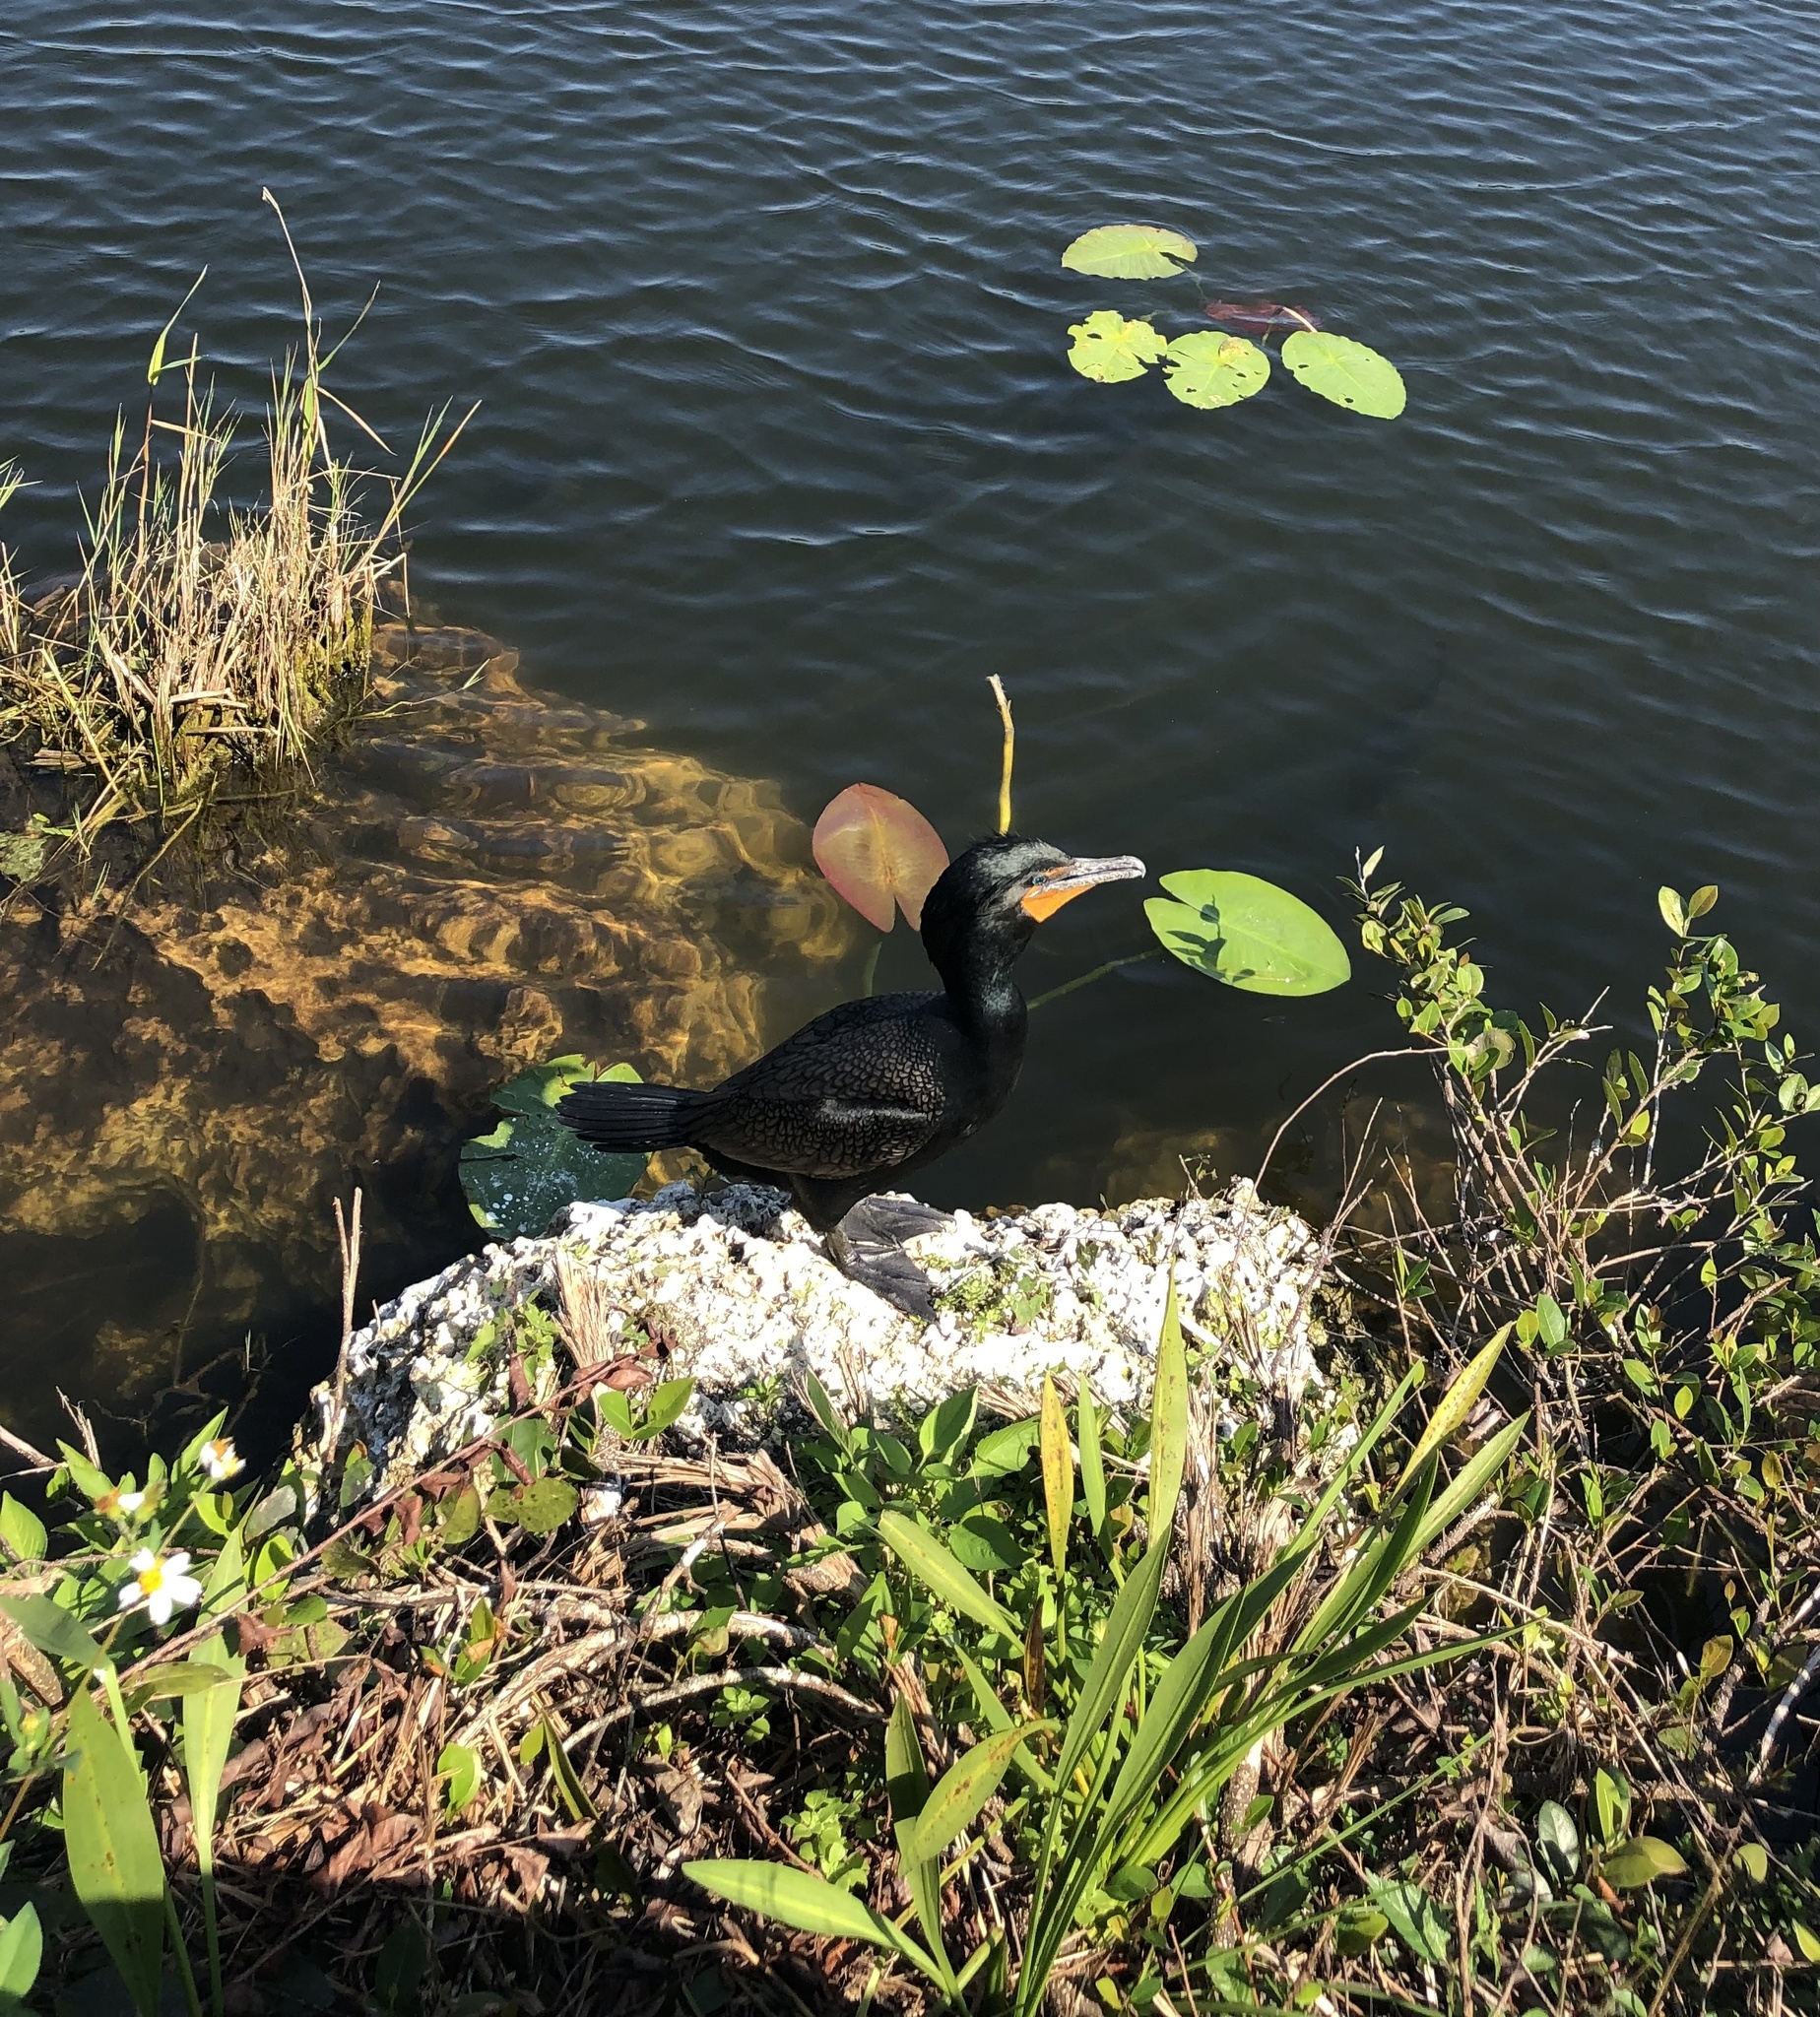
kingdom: Animalia
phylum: Chordata
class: Aves
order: Suliformes
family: Phalacrocoracidae
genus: Phalacrocorax
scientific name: Phalacrocorax auritus
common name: Double-crested cormorant
